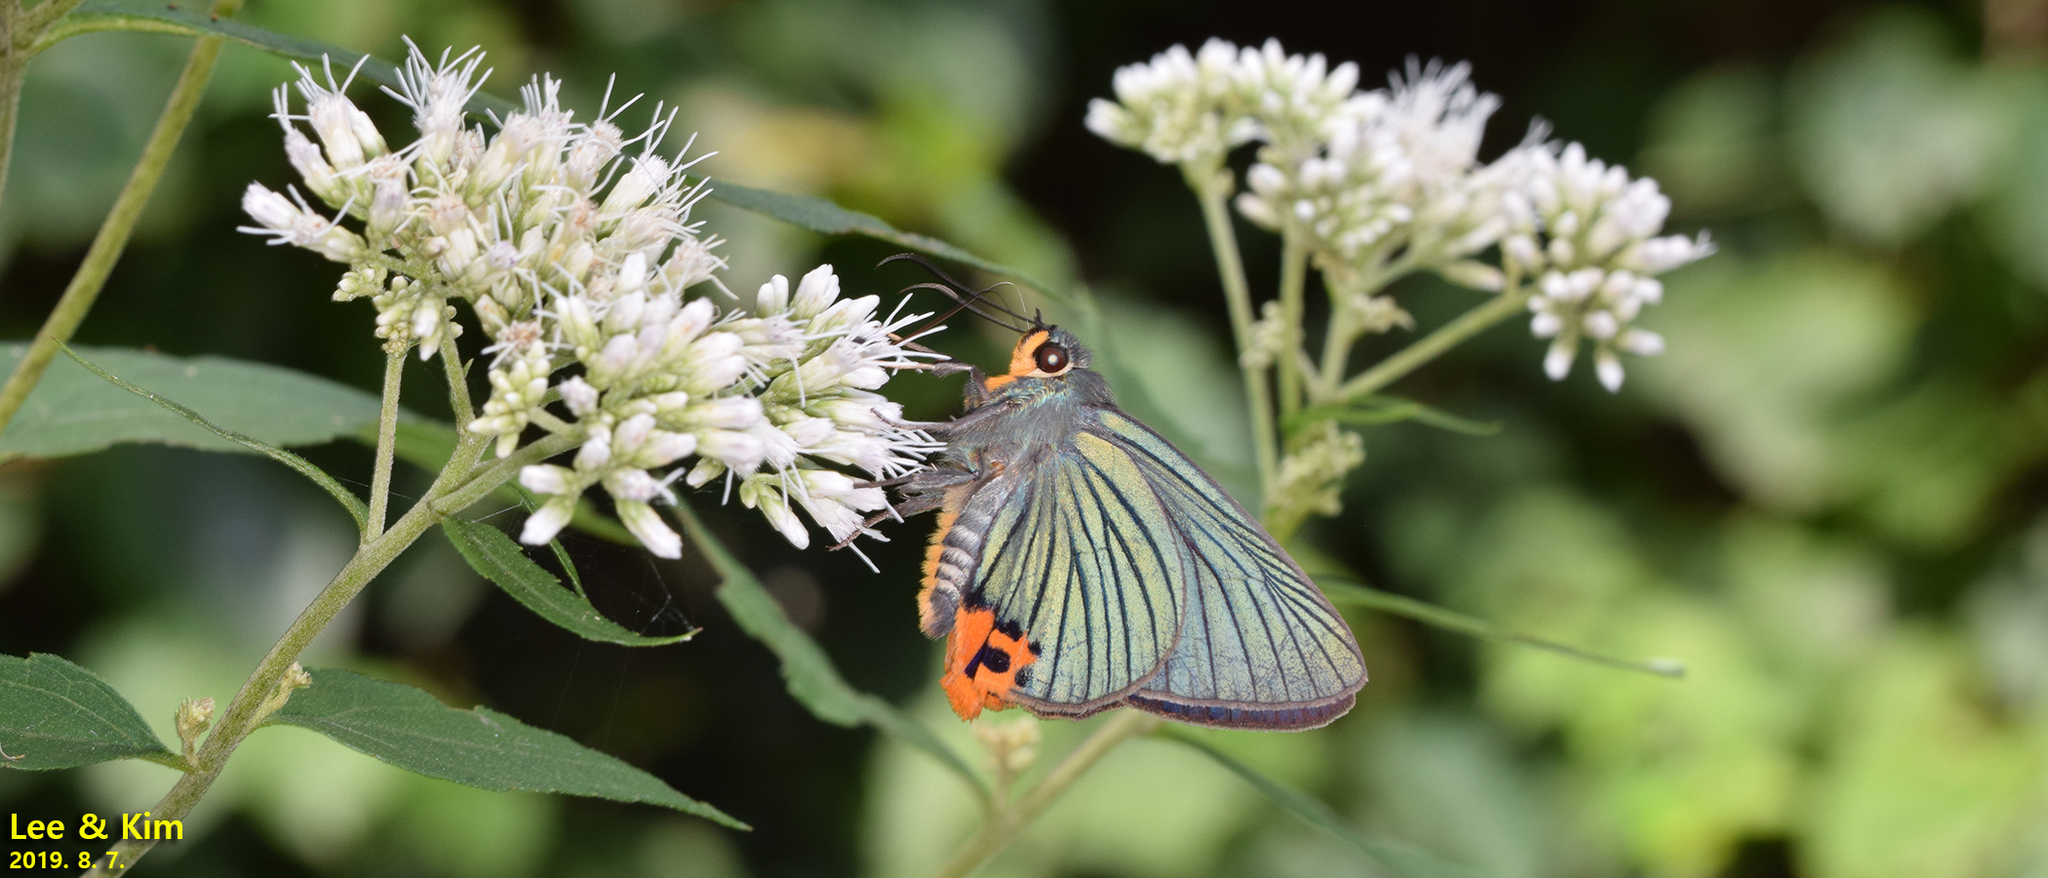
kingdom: Animalia
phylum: Arthropoda
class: Insecta
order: Lepidoptera
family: Hesperiidae
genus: Choaspes
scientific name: Choaspes benjaminii
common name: Indian awlking
